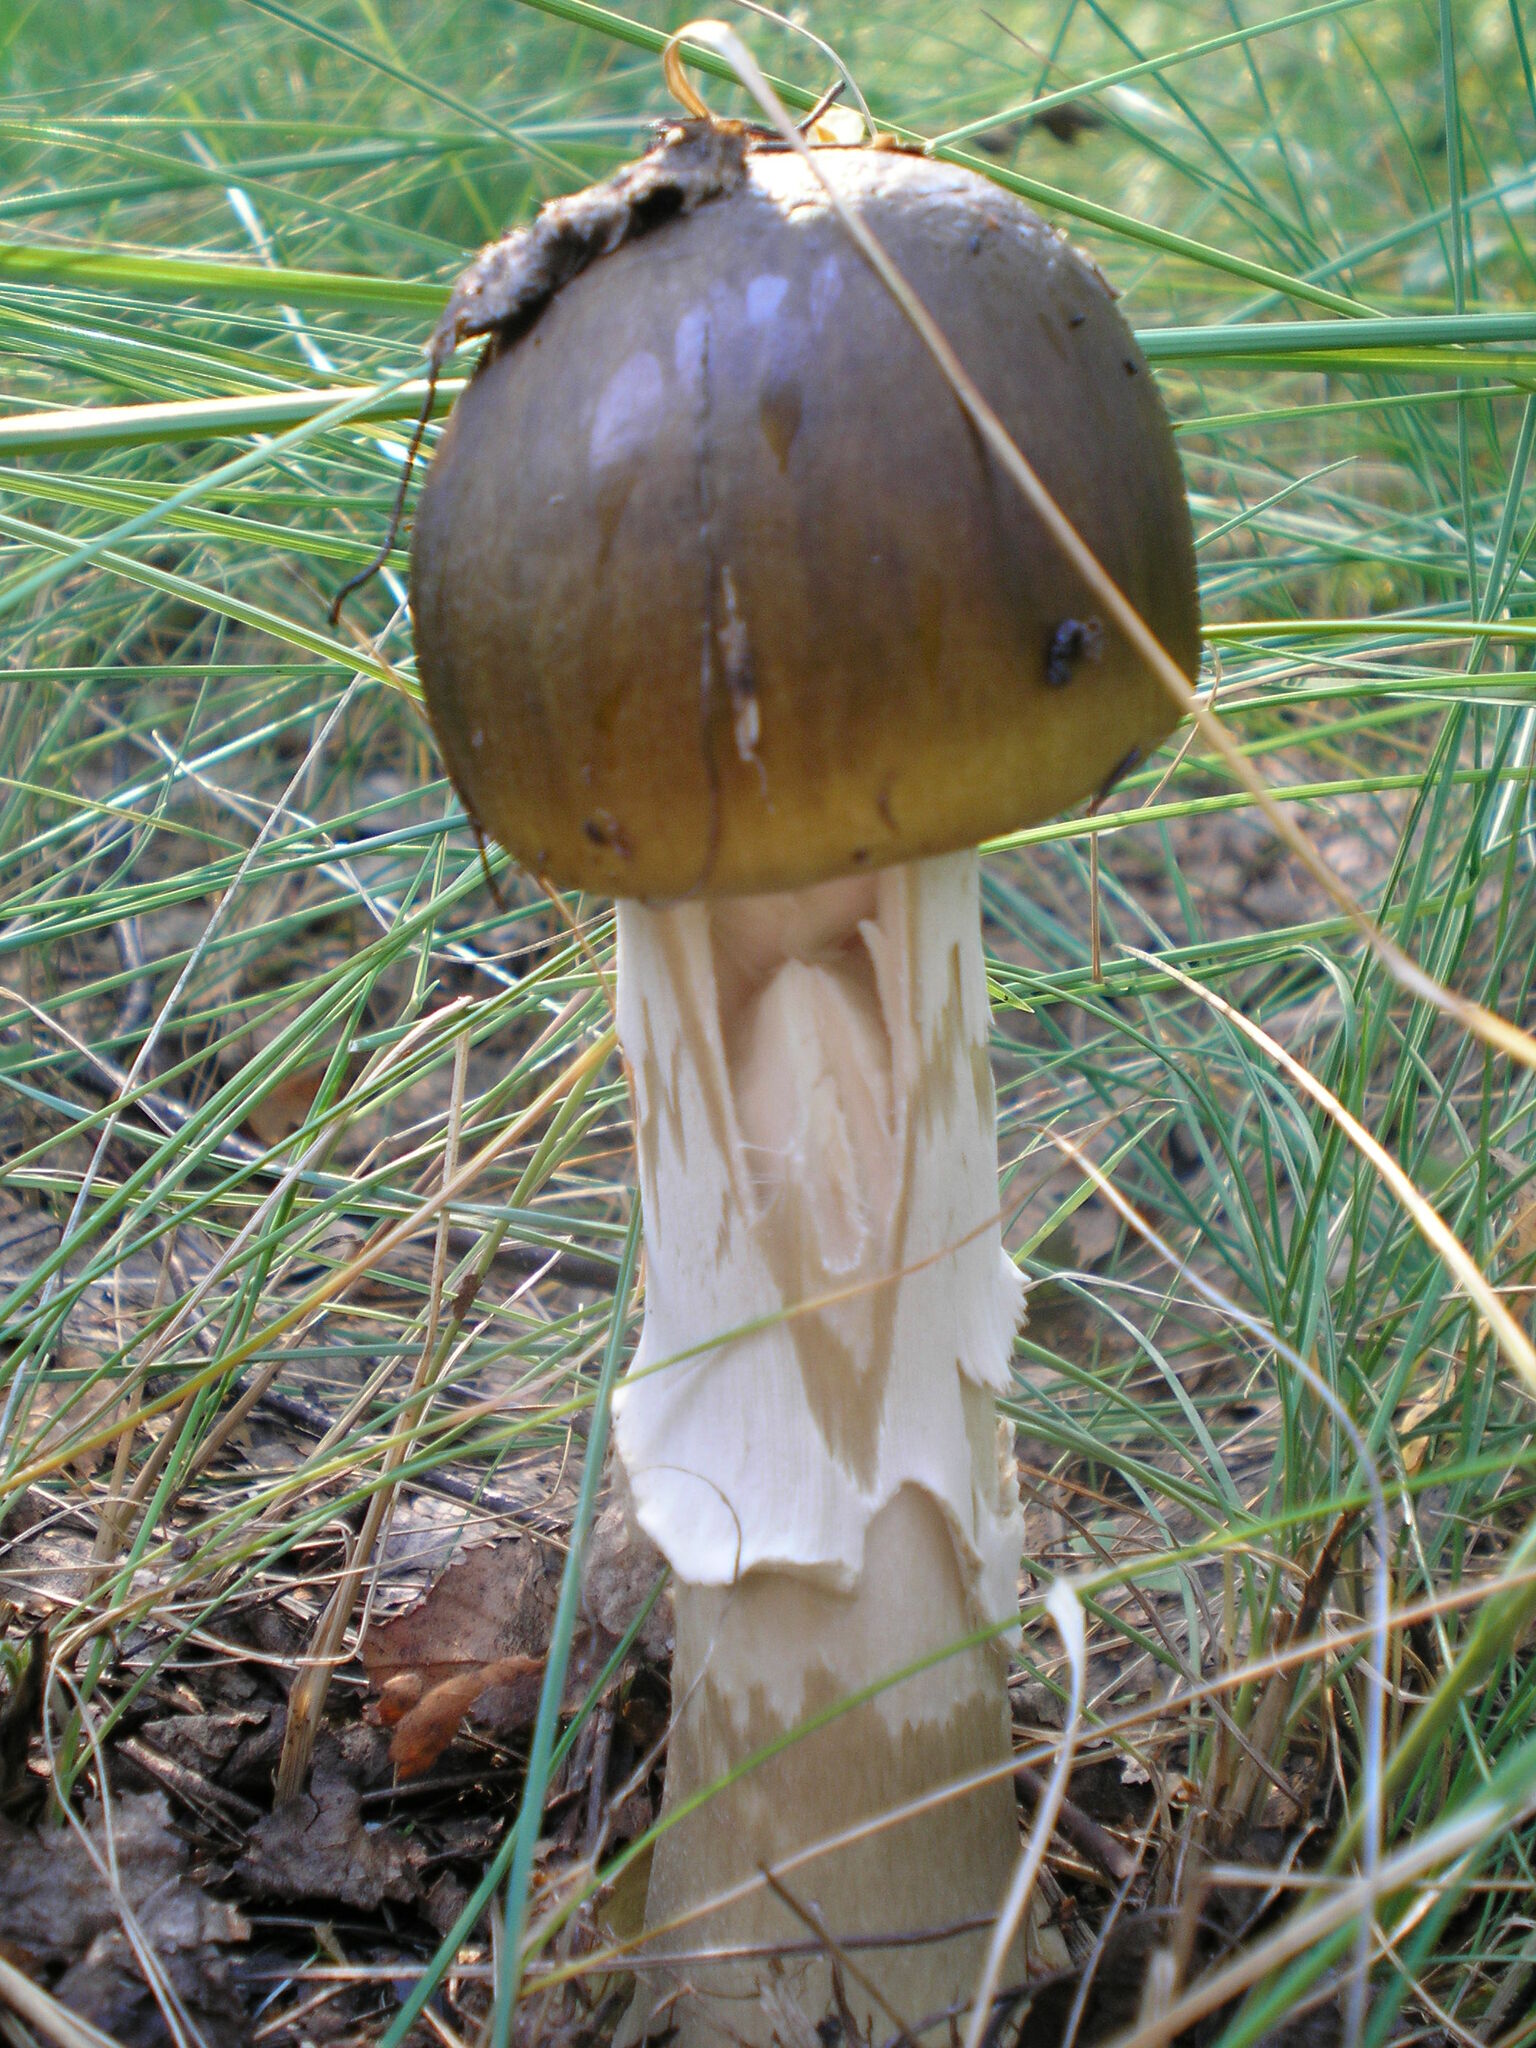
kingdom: Fungi
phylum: Basidiomycota
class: Agaricomycetes
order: Agaricales
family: Amanitaceae
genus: Amanita
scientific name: Amanita phalloides
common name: Death cap
